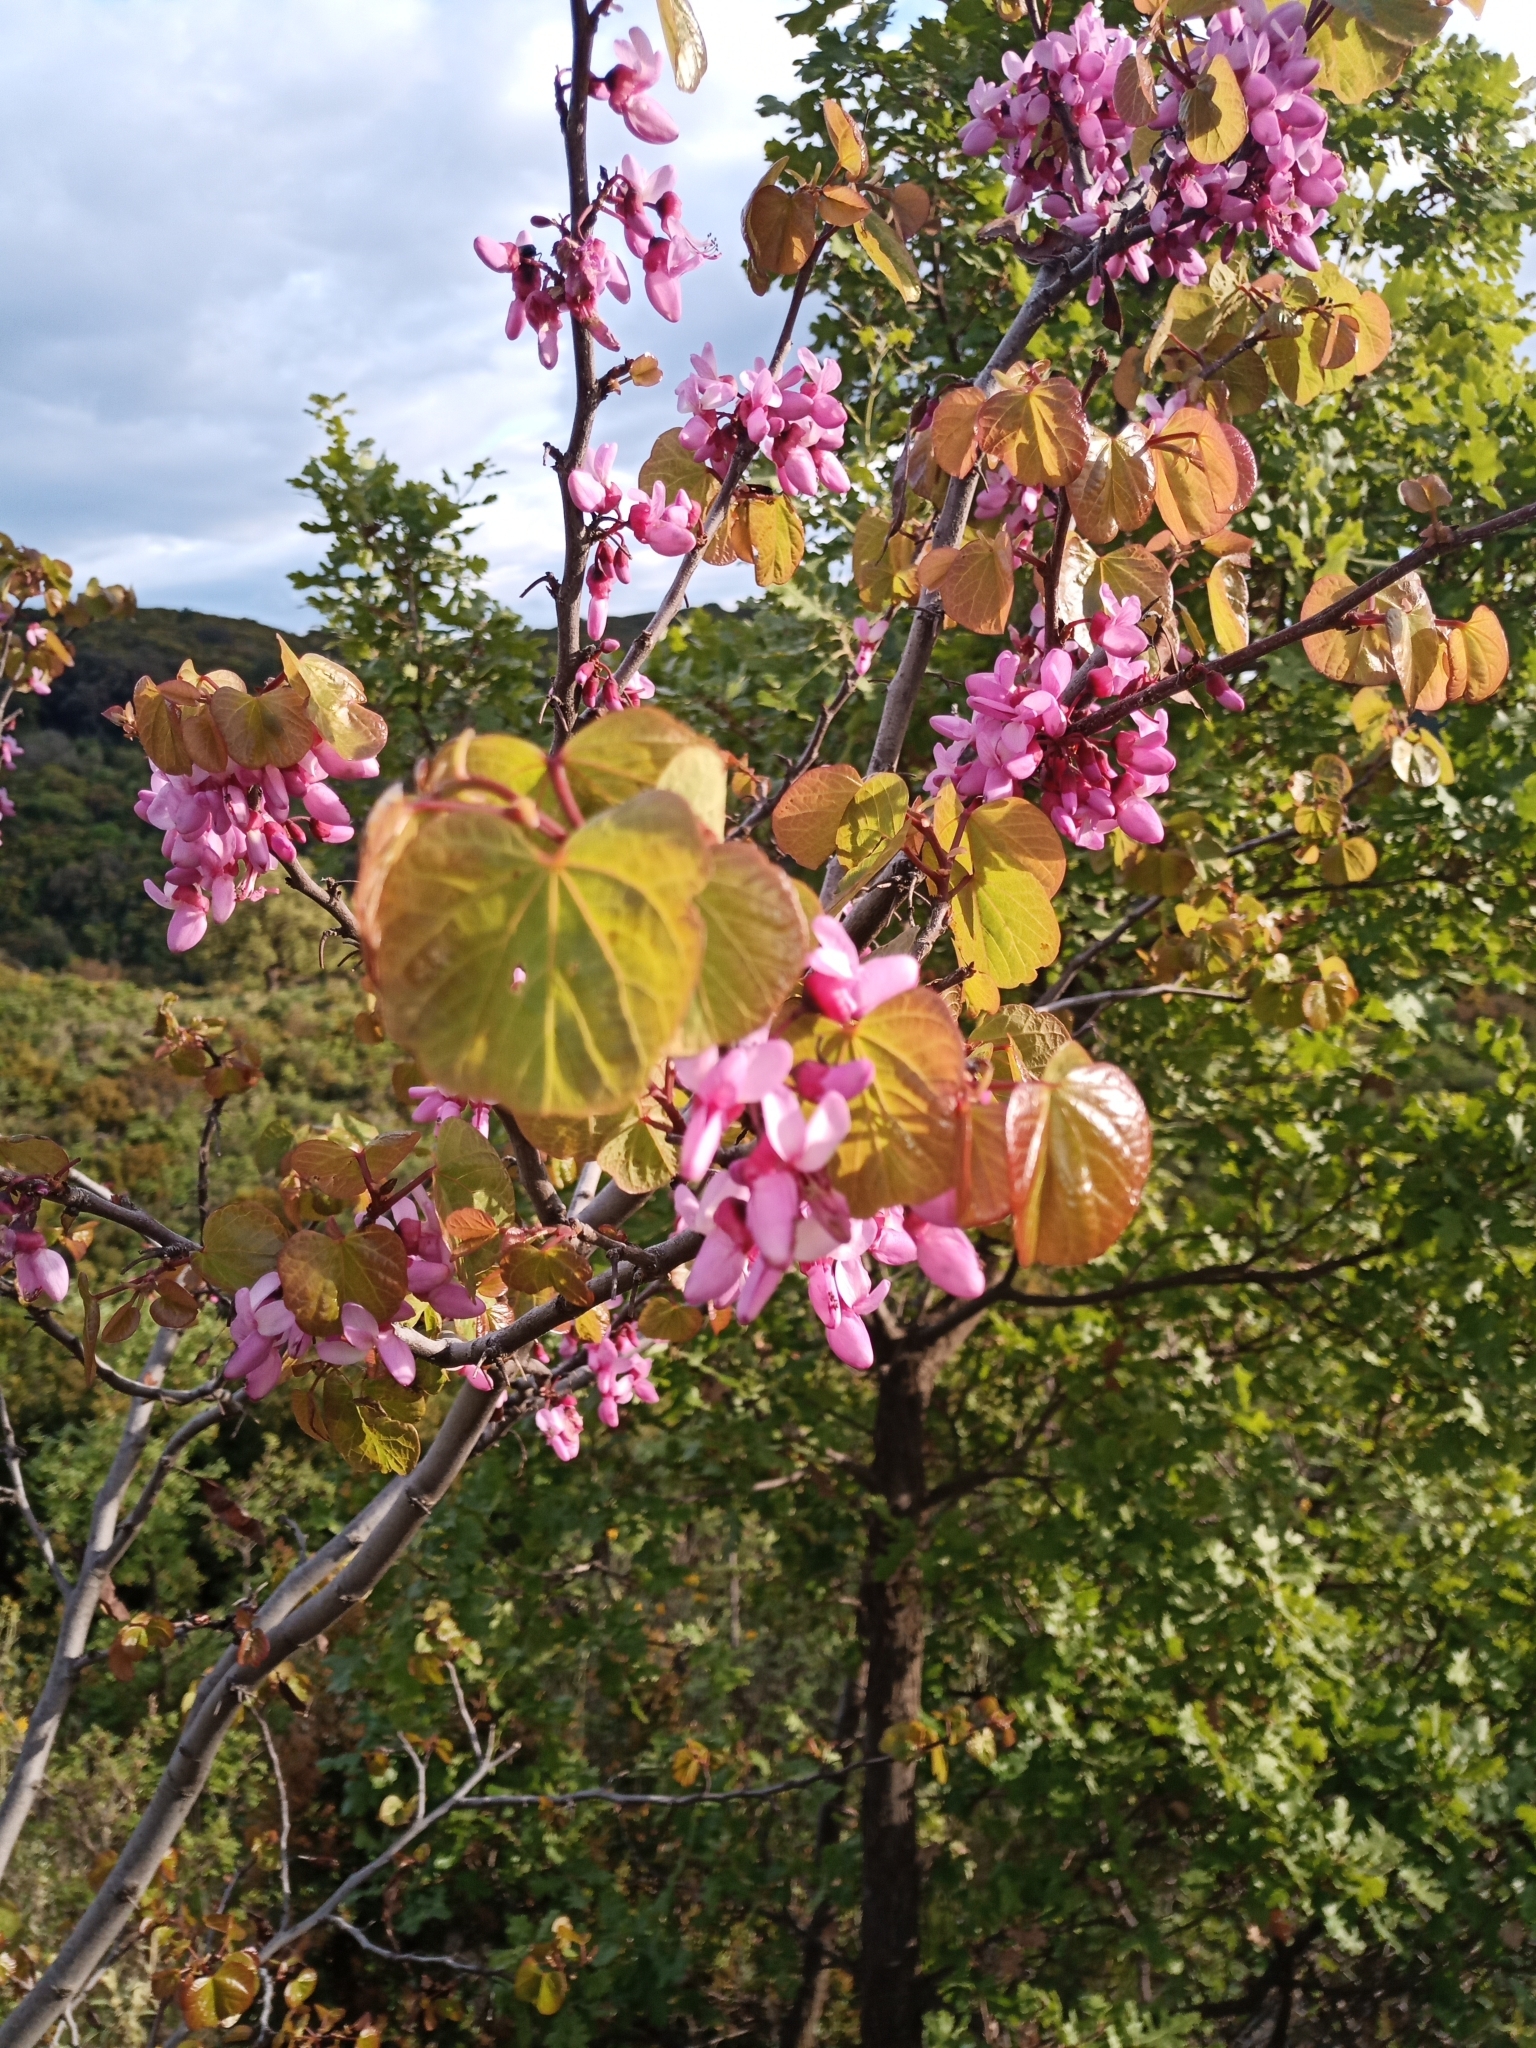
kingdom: Plantae
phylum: Tracheophyta
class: Magnoliopsida
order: Fabales
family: Fabaceae
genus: Cercis
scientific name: Cercis siliquastrum
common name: Judas tree
